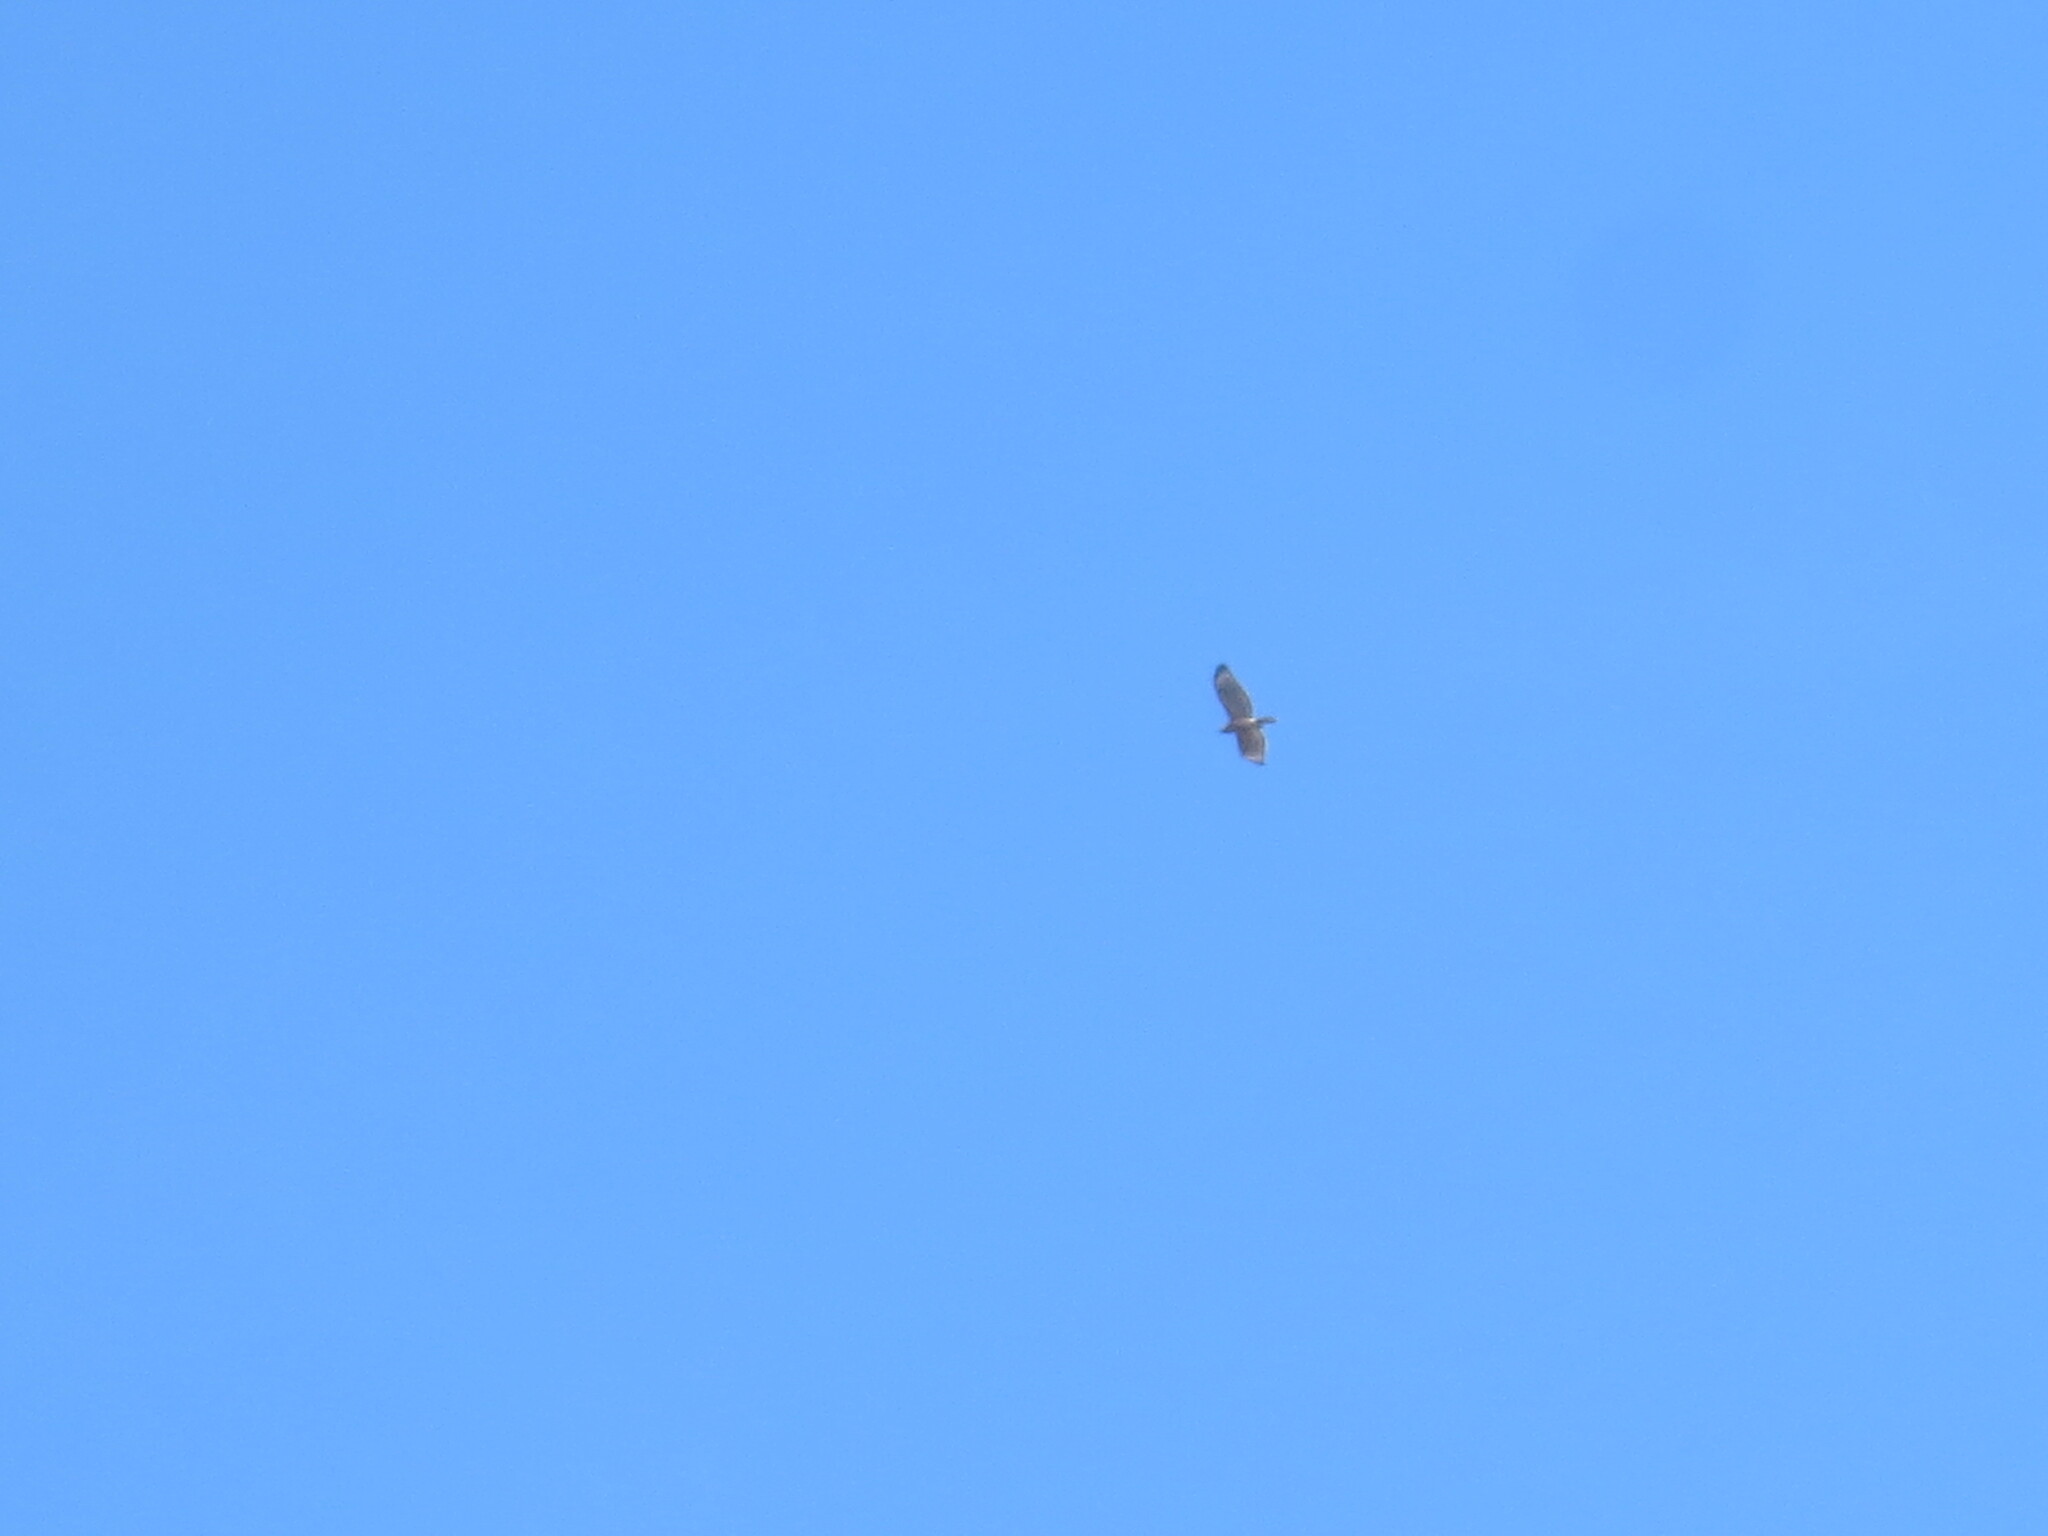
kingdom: Animalia
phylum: Chordata
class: Aves
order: Accipitriformes
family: Accipitridae
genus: Buteo
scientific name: Buteo lineatus
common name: Red-shouldered hawk
